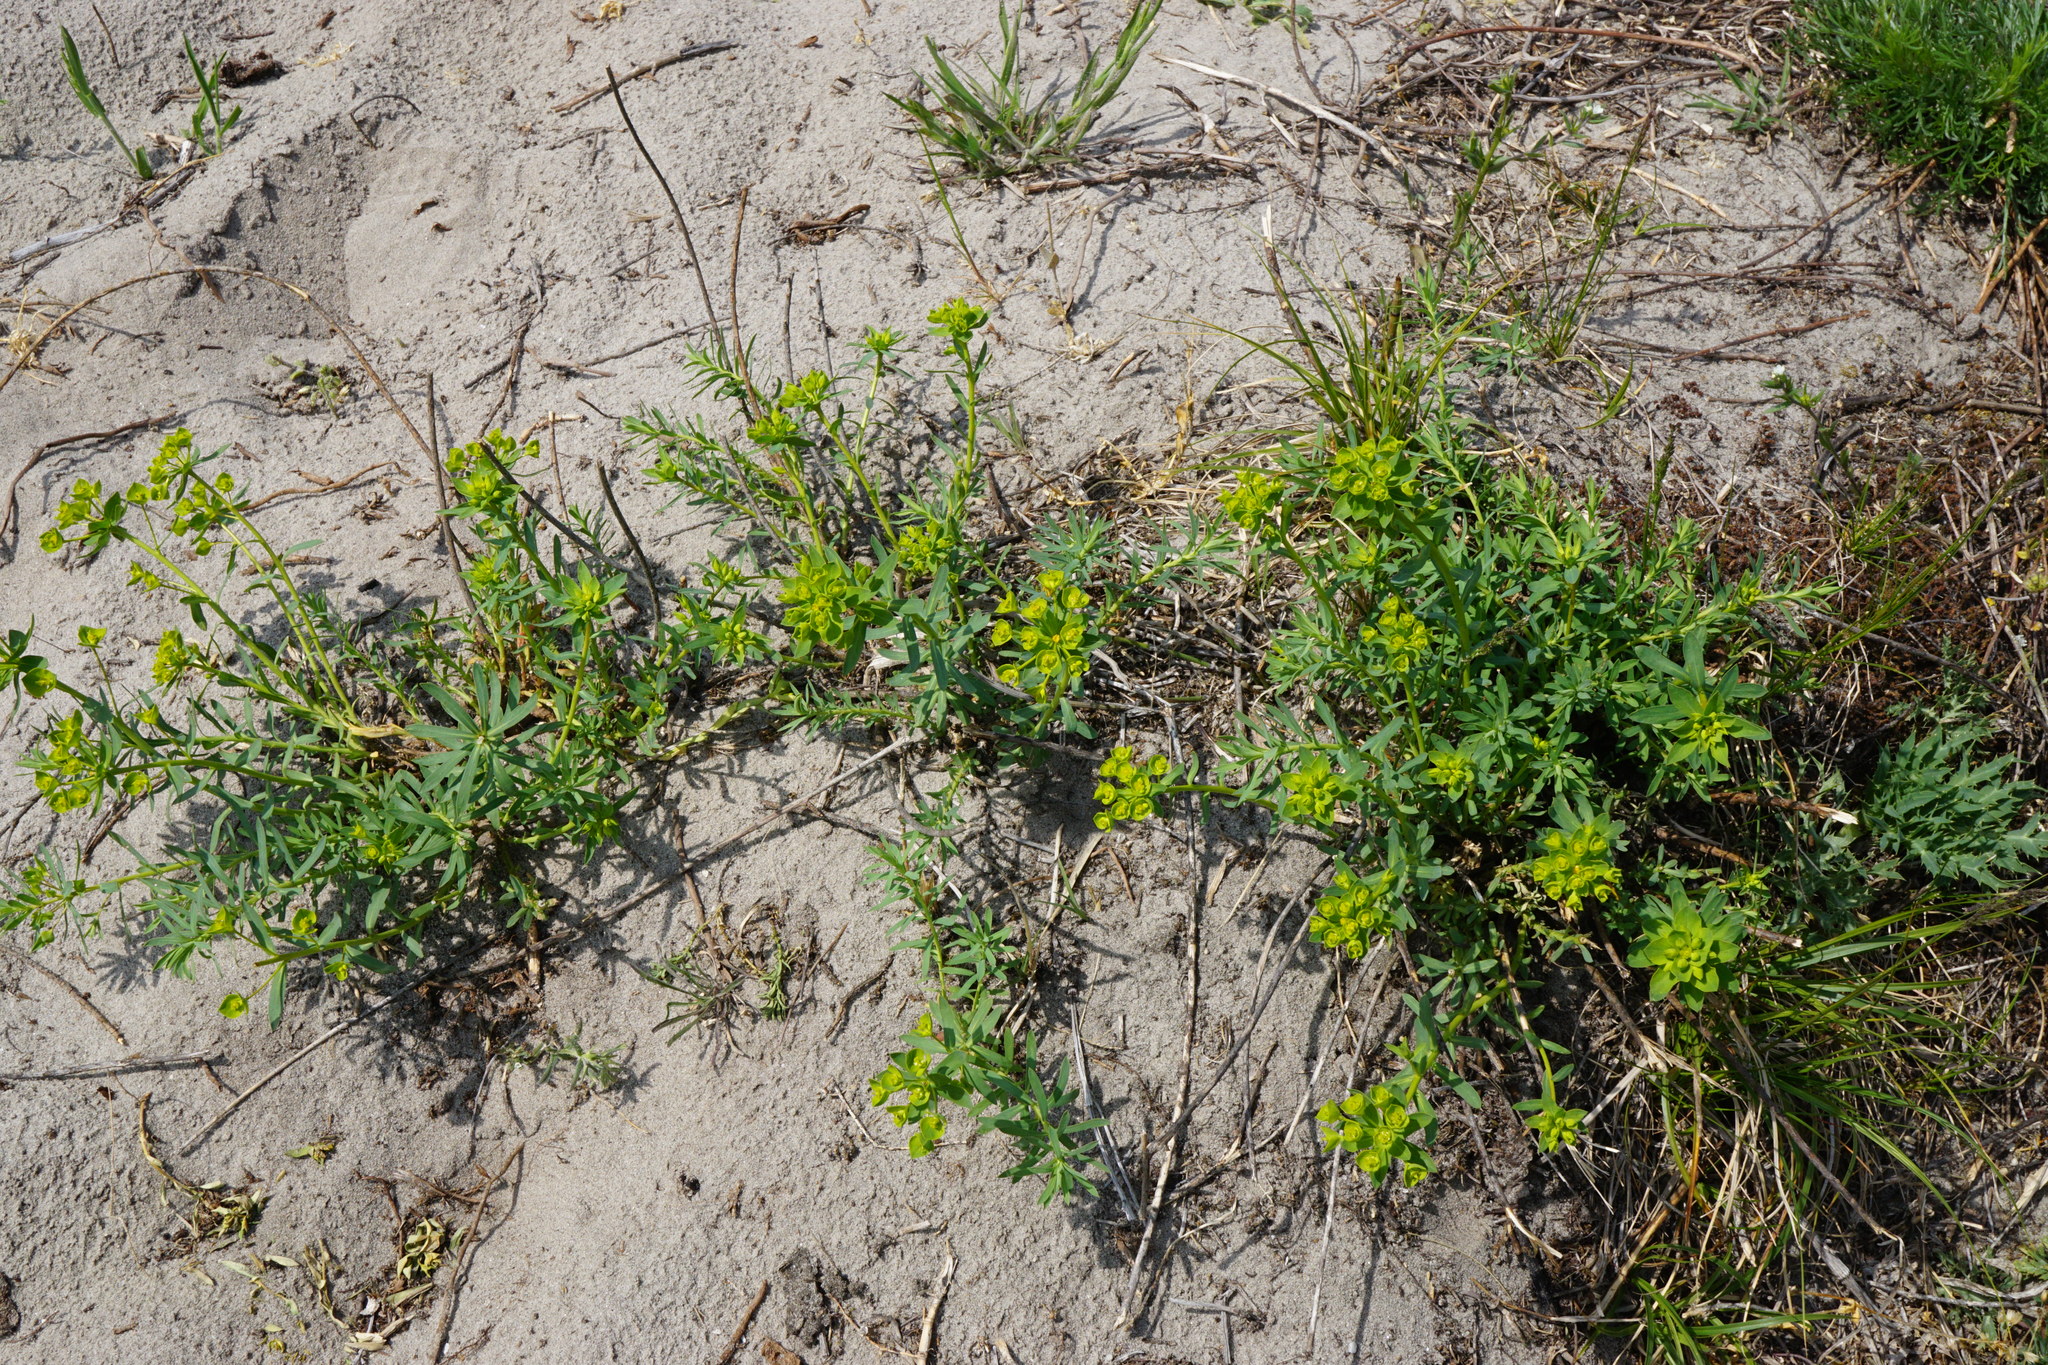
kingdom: Plantae
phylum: Tracheophyta
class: Magnoliopsida
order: Malpighiales
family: Euphorbiaceae
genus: Euphorbia
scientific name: Euphorbia seguieriana
